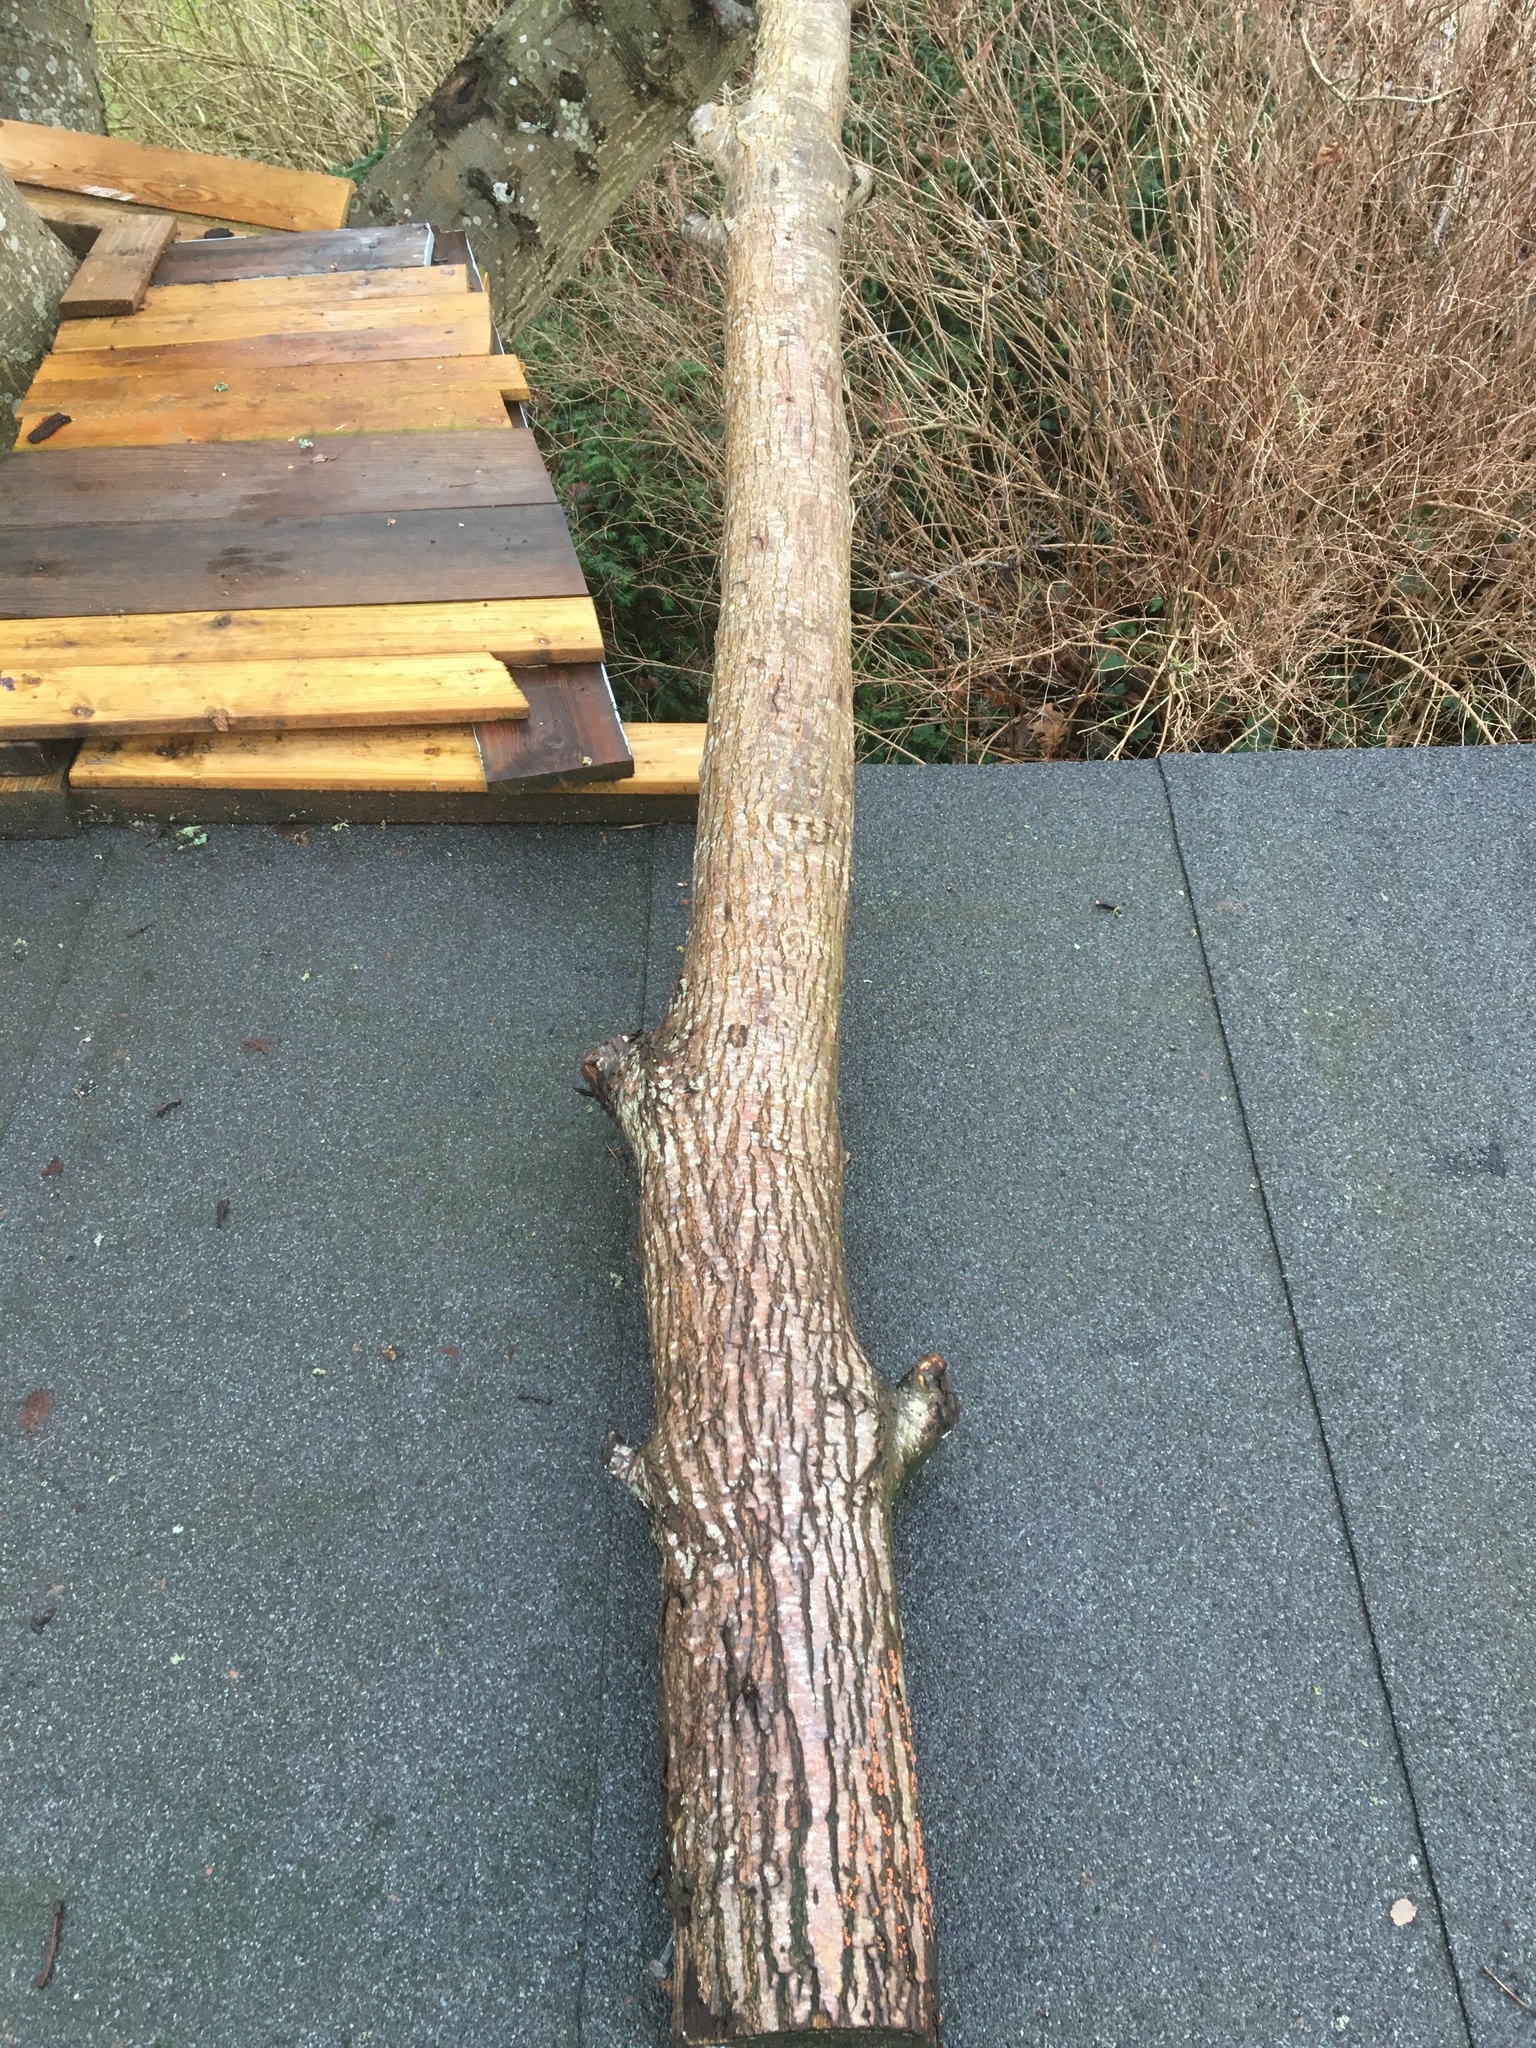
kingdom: Fungi
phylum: Ascomycota
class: Sordariomycetes
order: Hypocreales
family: Nectriaceae
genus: Nectria
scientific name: Nectria cinnabarina
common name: Coral spot
